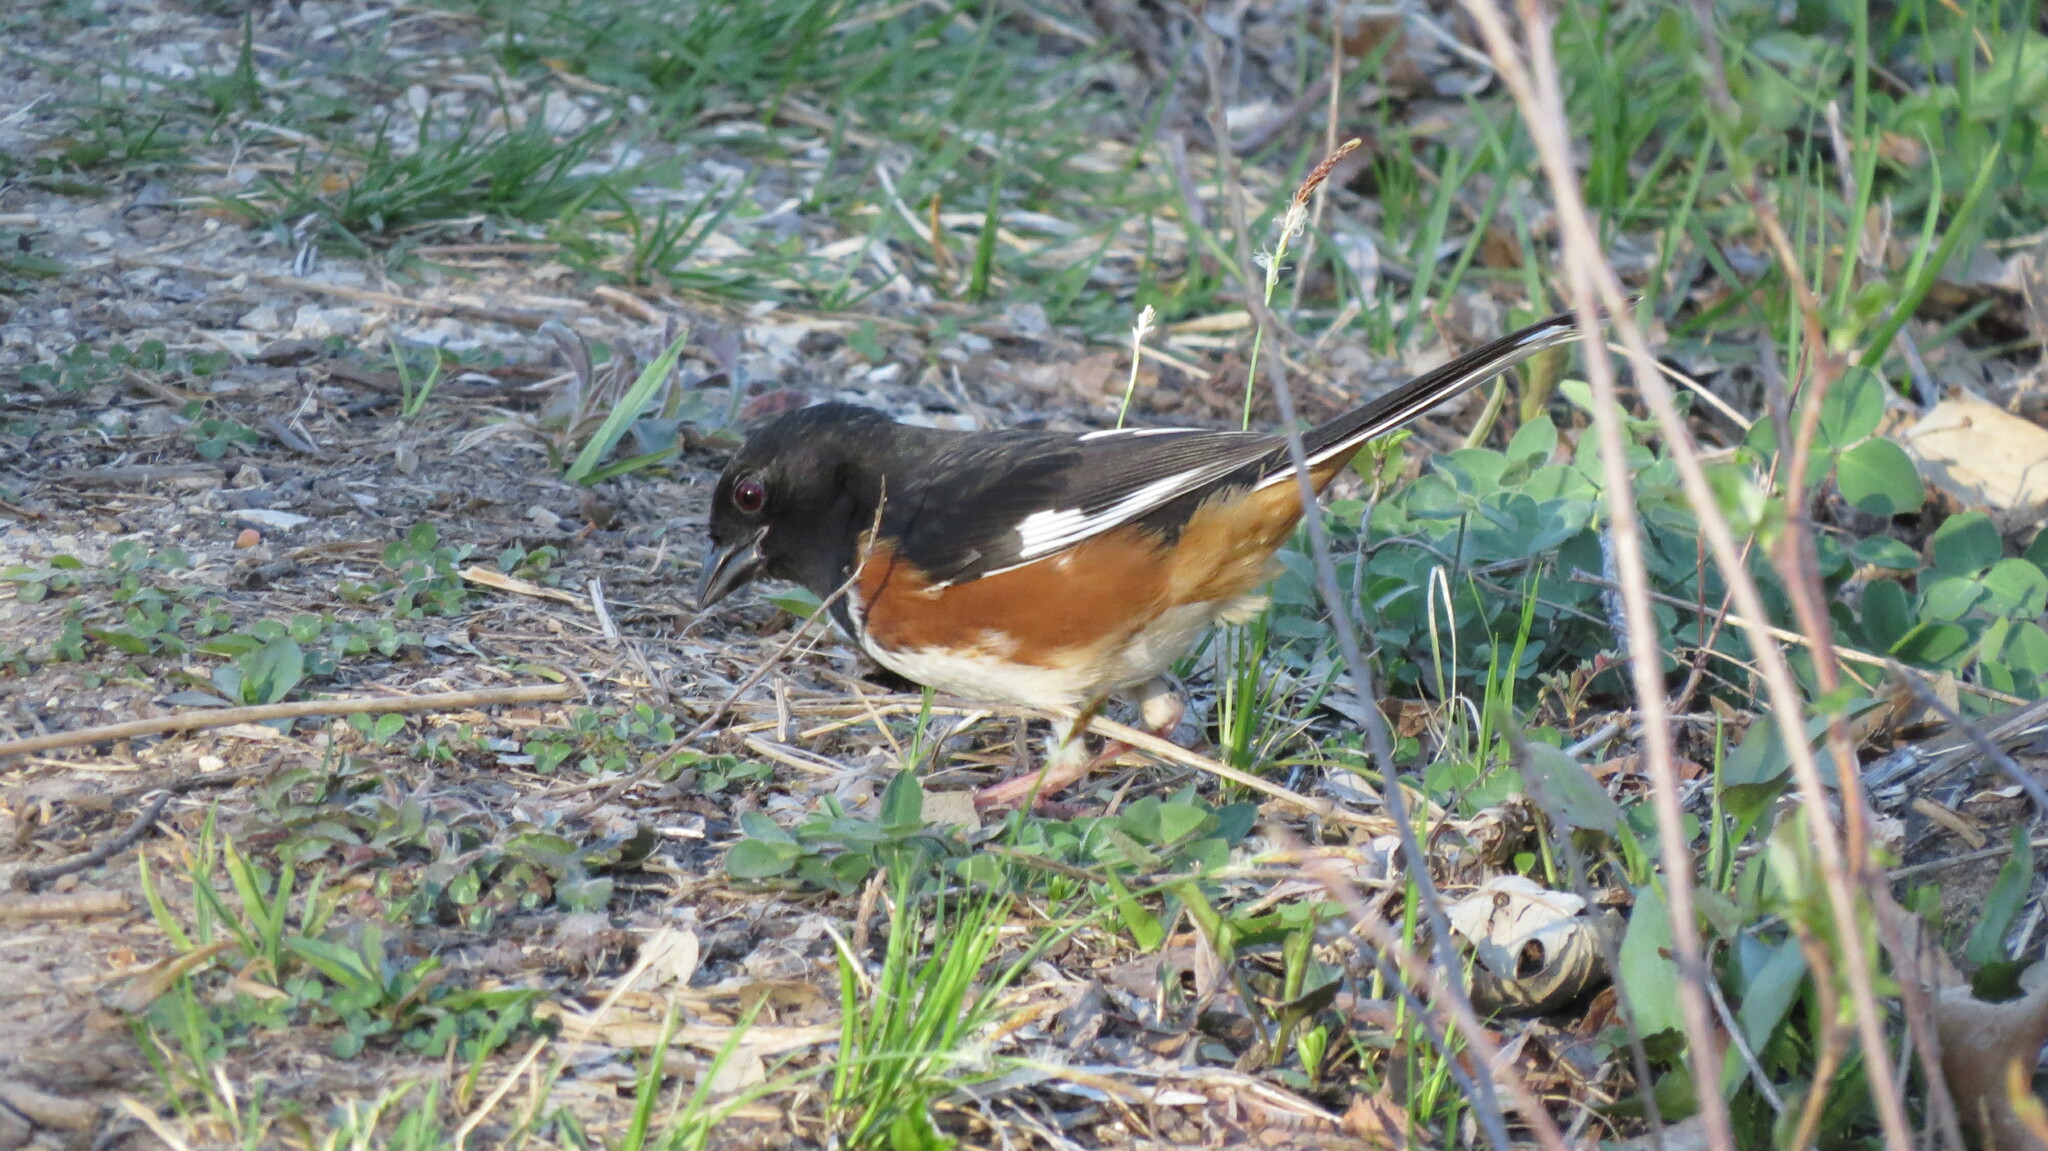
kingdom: Animalia
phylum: Chordata
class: Aves
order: Passeriformes
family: Passerellidae
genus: Pipilo
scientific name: Pipilo erythrophthalmus
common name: Eastern towhee
